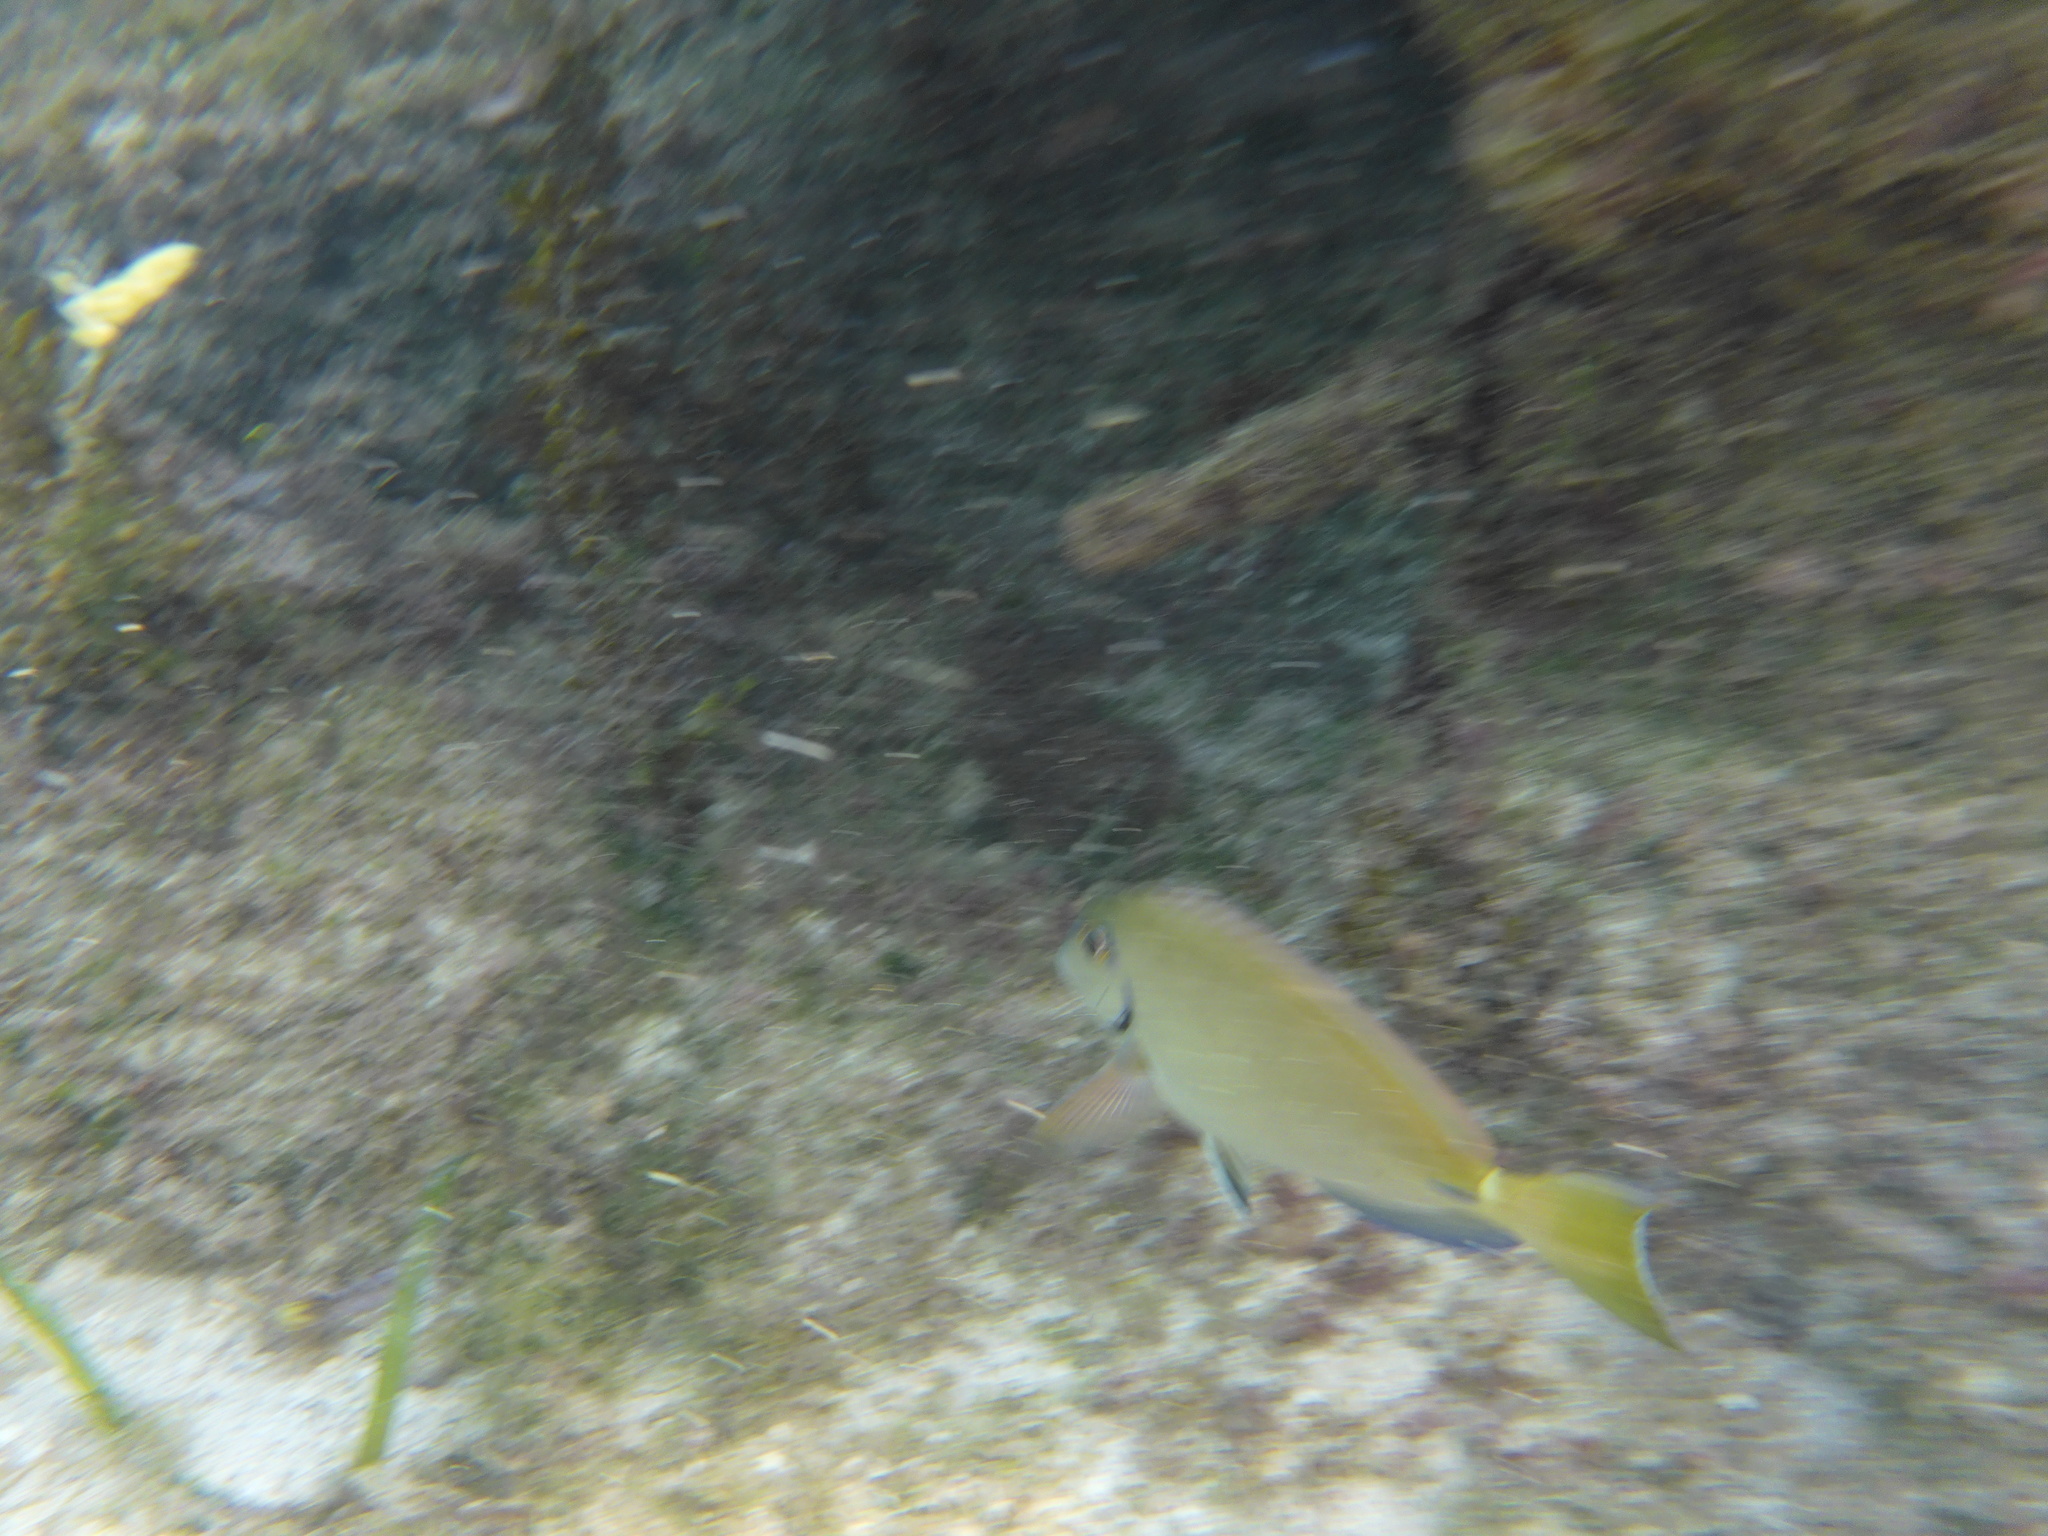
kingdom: Animalia
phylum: Chordata
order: Perciformes
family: Acanthuridae
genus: Acanthurus
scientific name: Acanthurus bahianus
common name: Ocean surgeon
